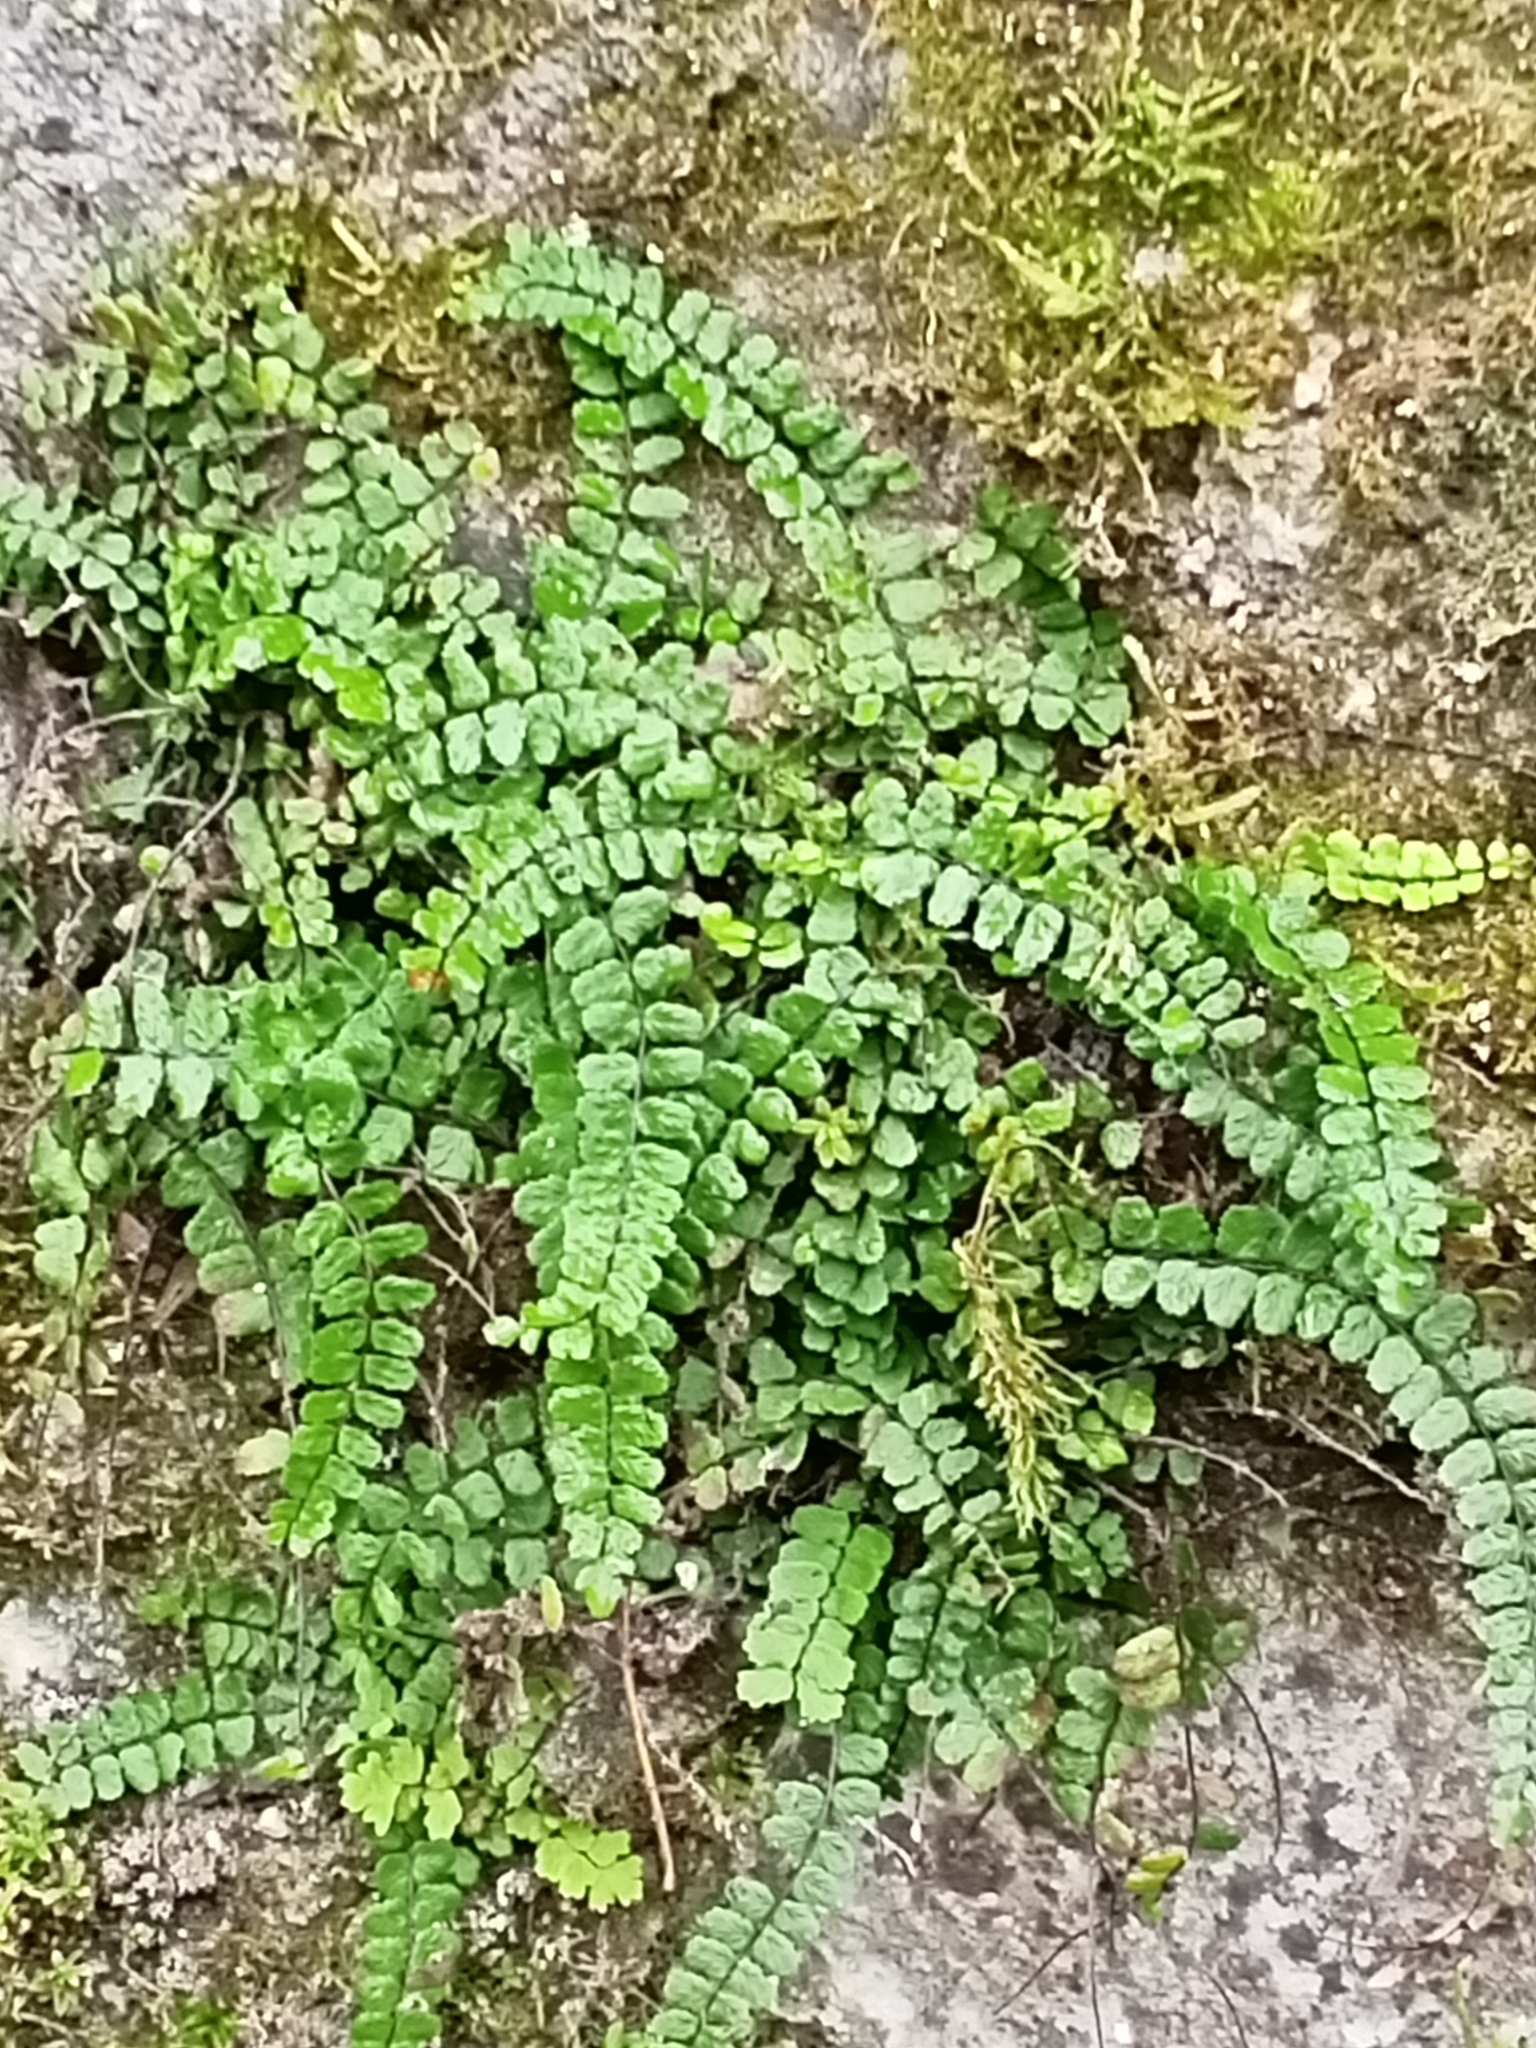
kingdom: Plantae
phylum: Tracheophyta
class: Polypodiopsida
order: Polypodiales
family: Aspleniaceae
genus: Asplenium
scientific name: Asplenium viride
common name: Green spleenwort
